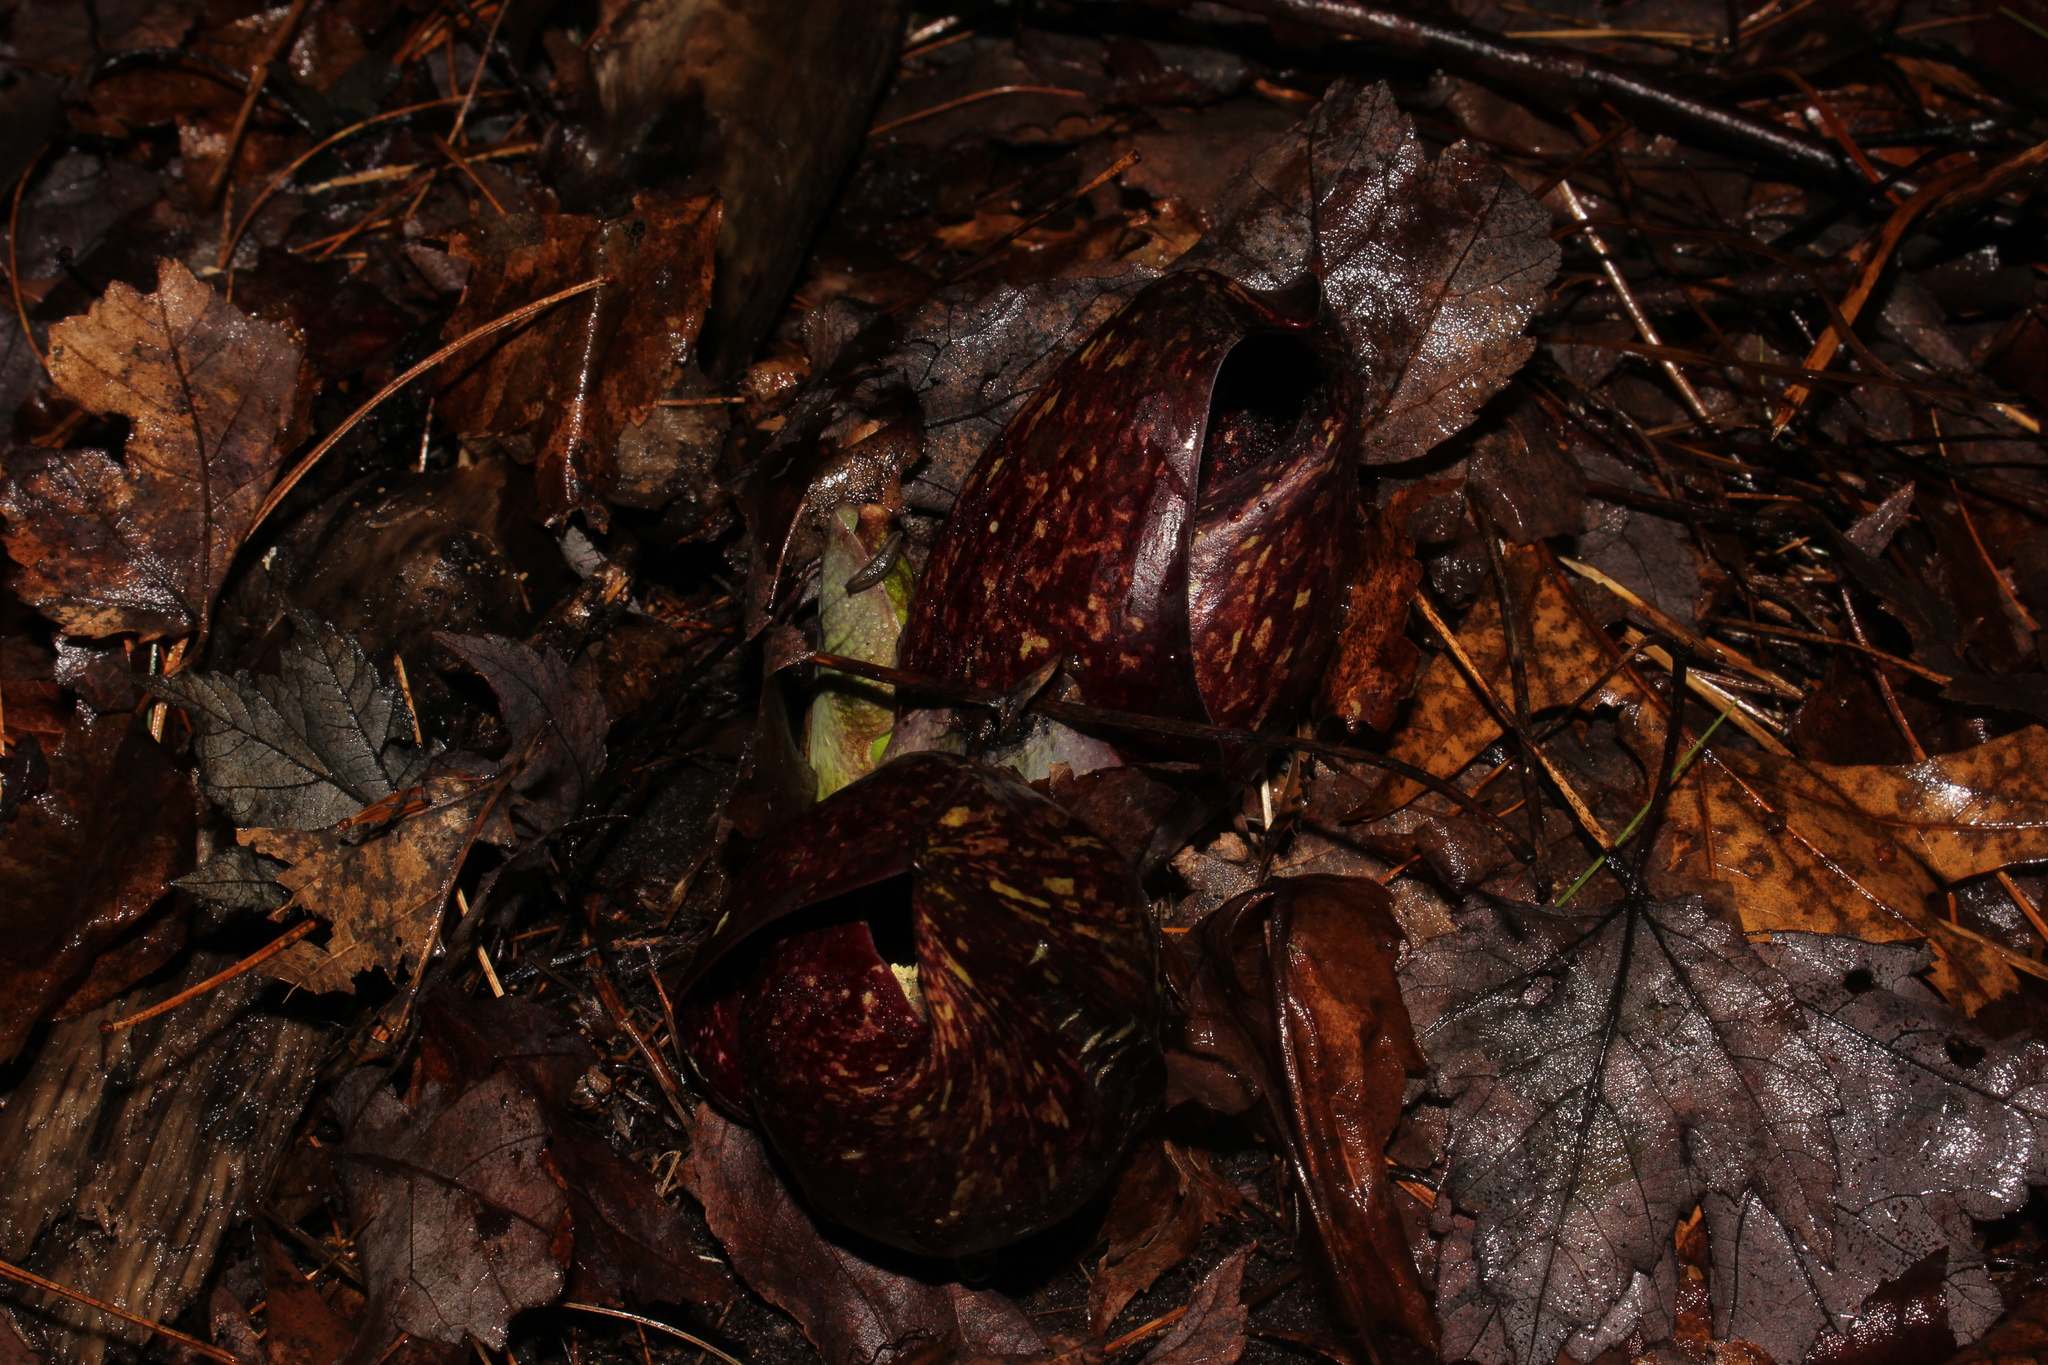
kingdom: Plantae
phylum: Tracheophyta
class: Liliopsida
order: Alismatales
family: Araceae
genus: Symplocarpus
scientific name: Symplocarpus foetidus
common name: Eastern skunk cabbage
